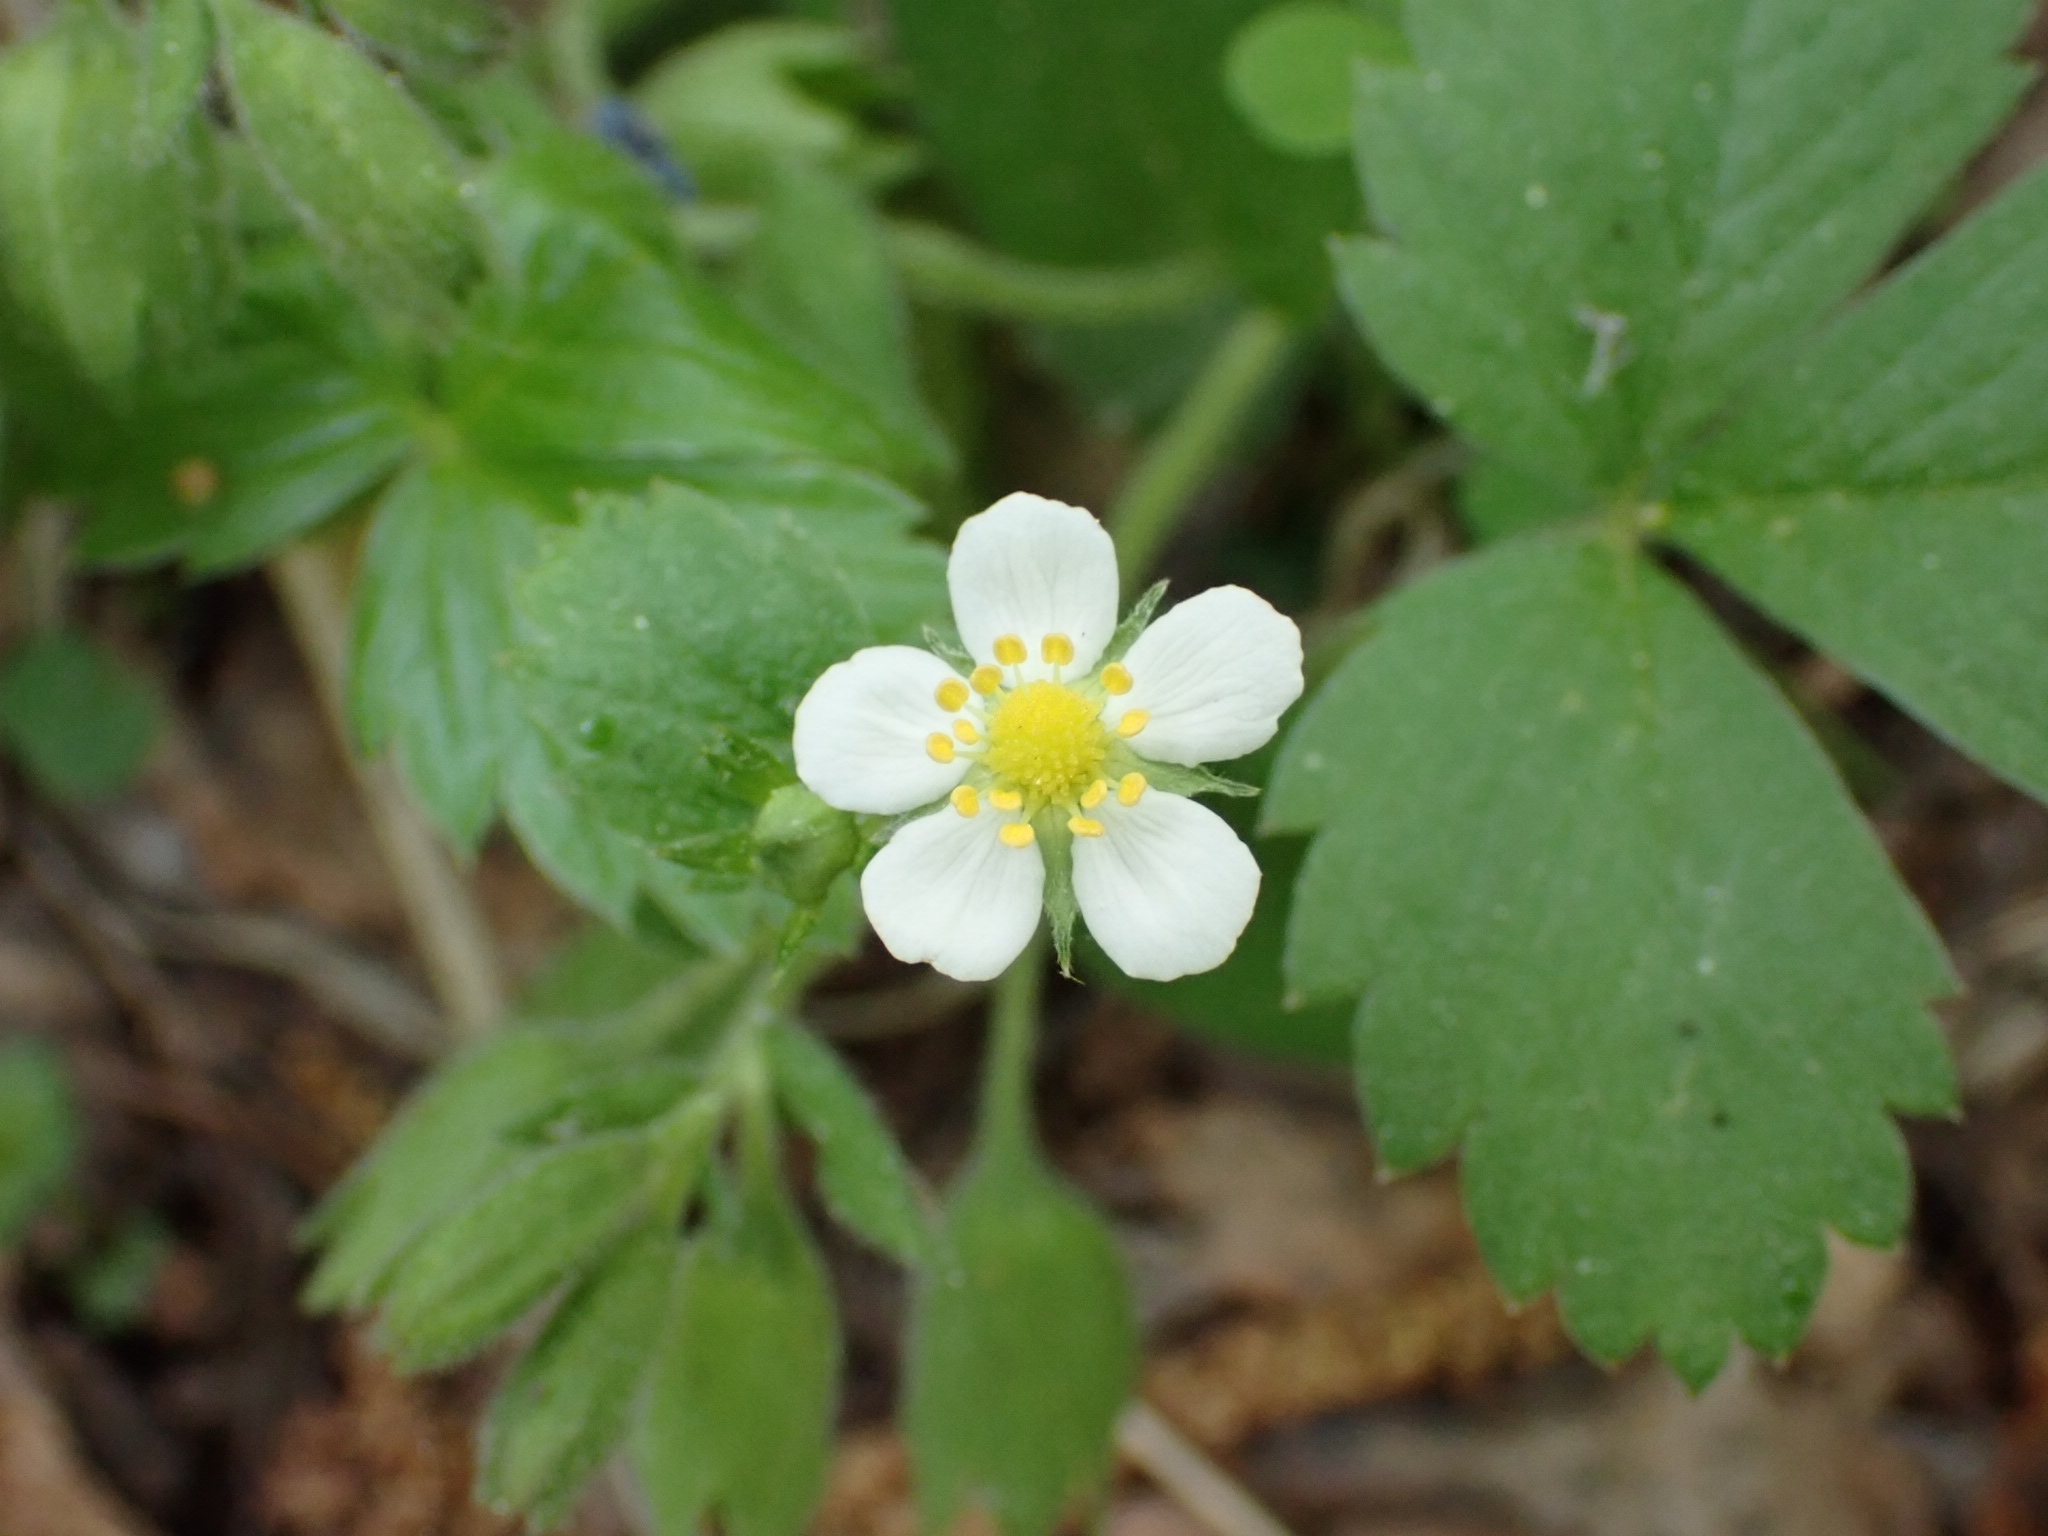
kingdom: Plantae
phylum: Tracheophyta
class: Magnoliopsida
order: Rosales
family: Rosaceae
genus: Fragaria
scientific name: Fragaria vesca
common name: Wild strawberry
